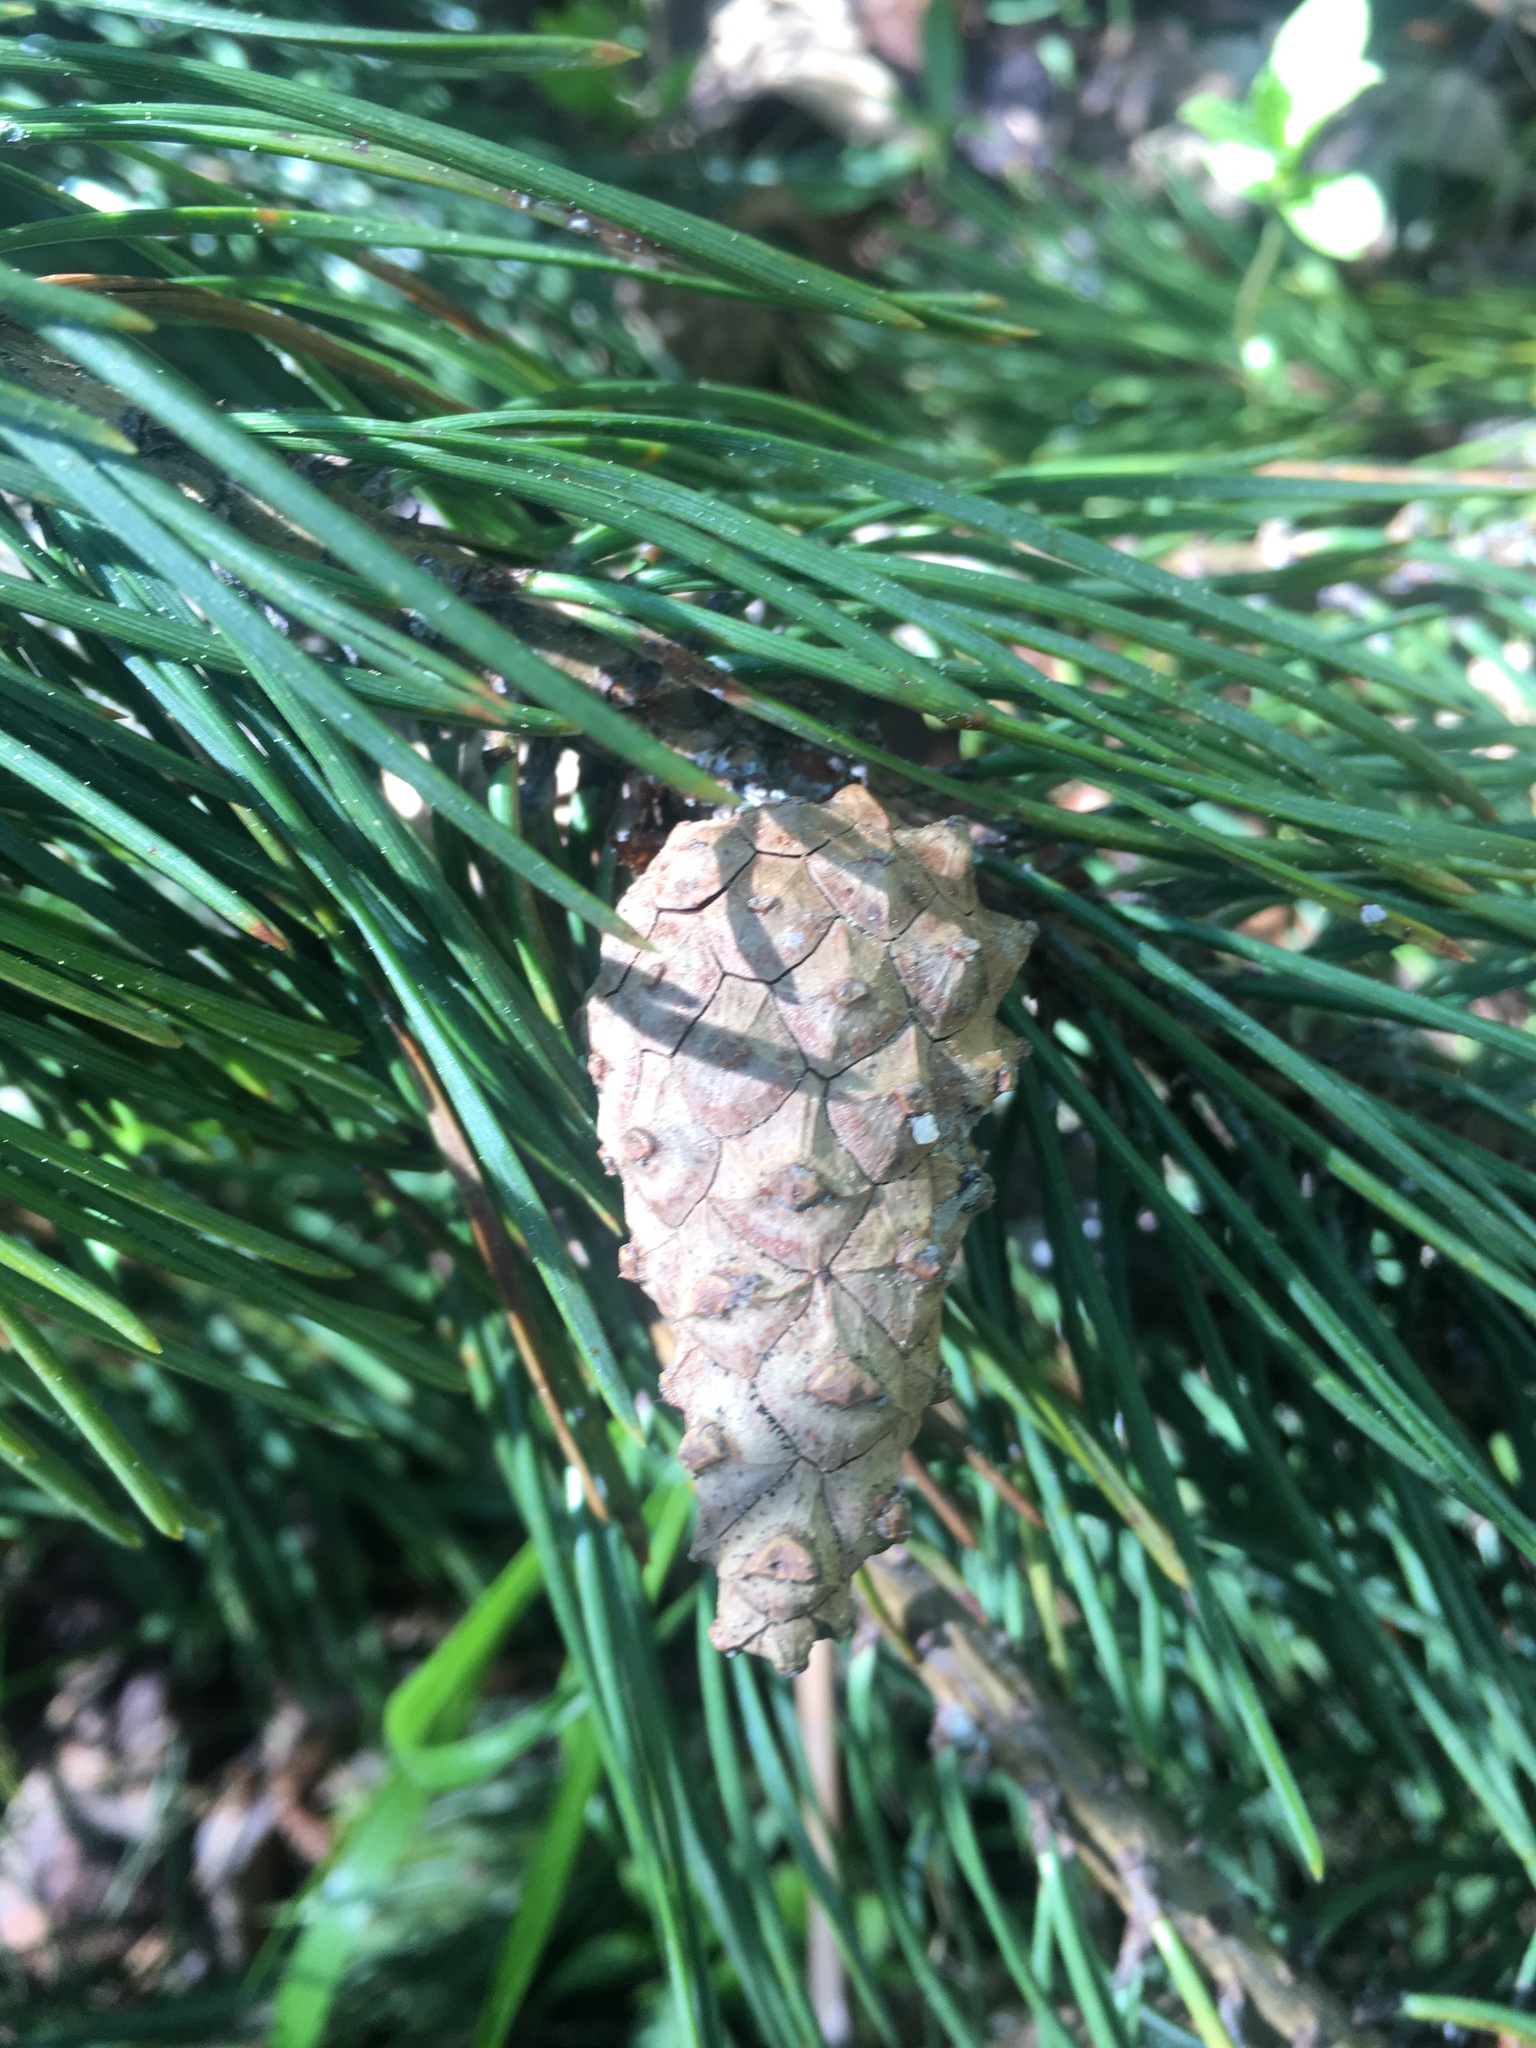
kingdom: Plantae
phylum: Tracheophyta
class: Pinopsida
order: Pinales
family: Pinaceae
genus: Pinus
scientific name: Pinus sylvestris
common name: Scots pine
